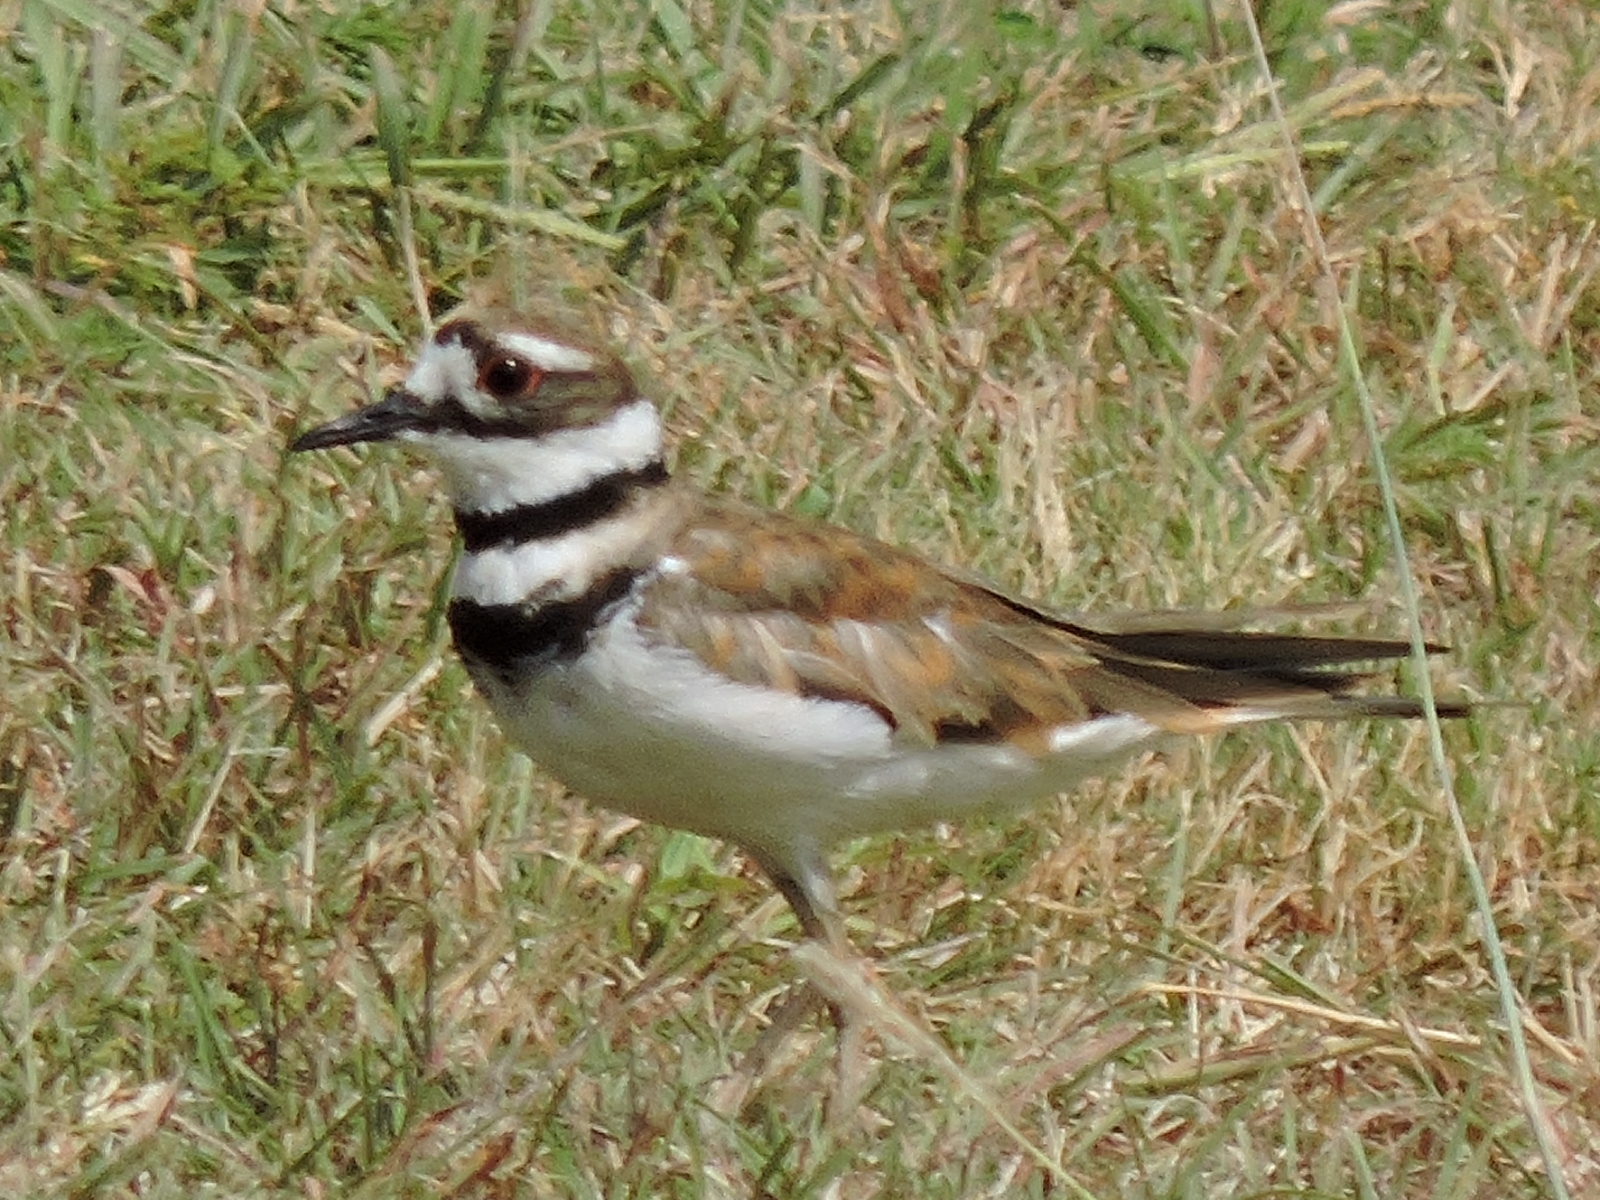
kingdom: Animalia
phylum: Chordata
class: Aves
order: Charadriiformes
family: Charadriidae
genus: Charadrius
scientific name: Charadrius vociferus
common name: Killdeer
